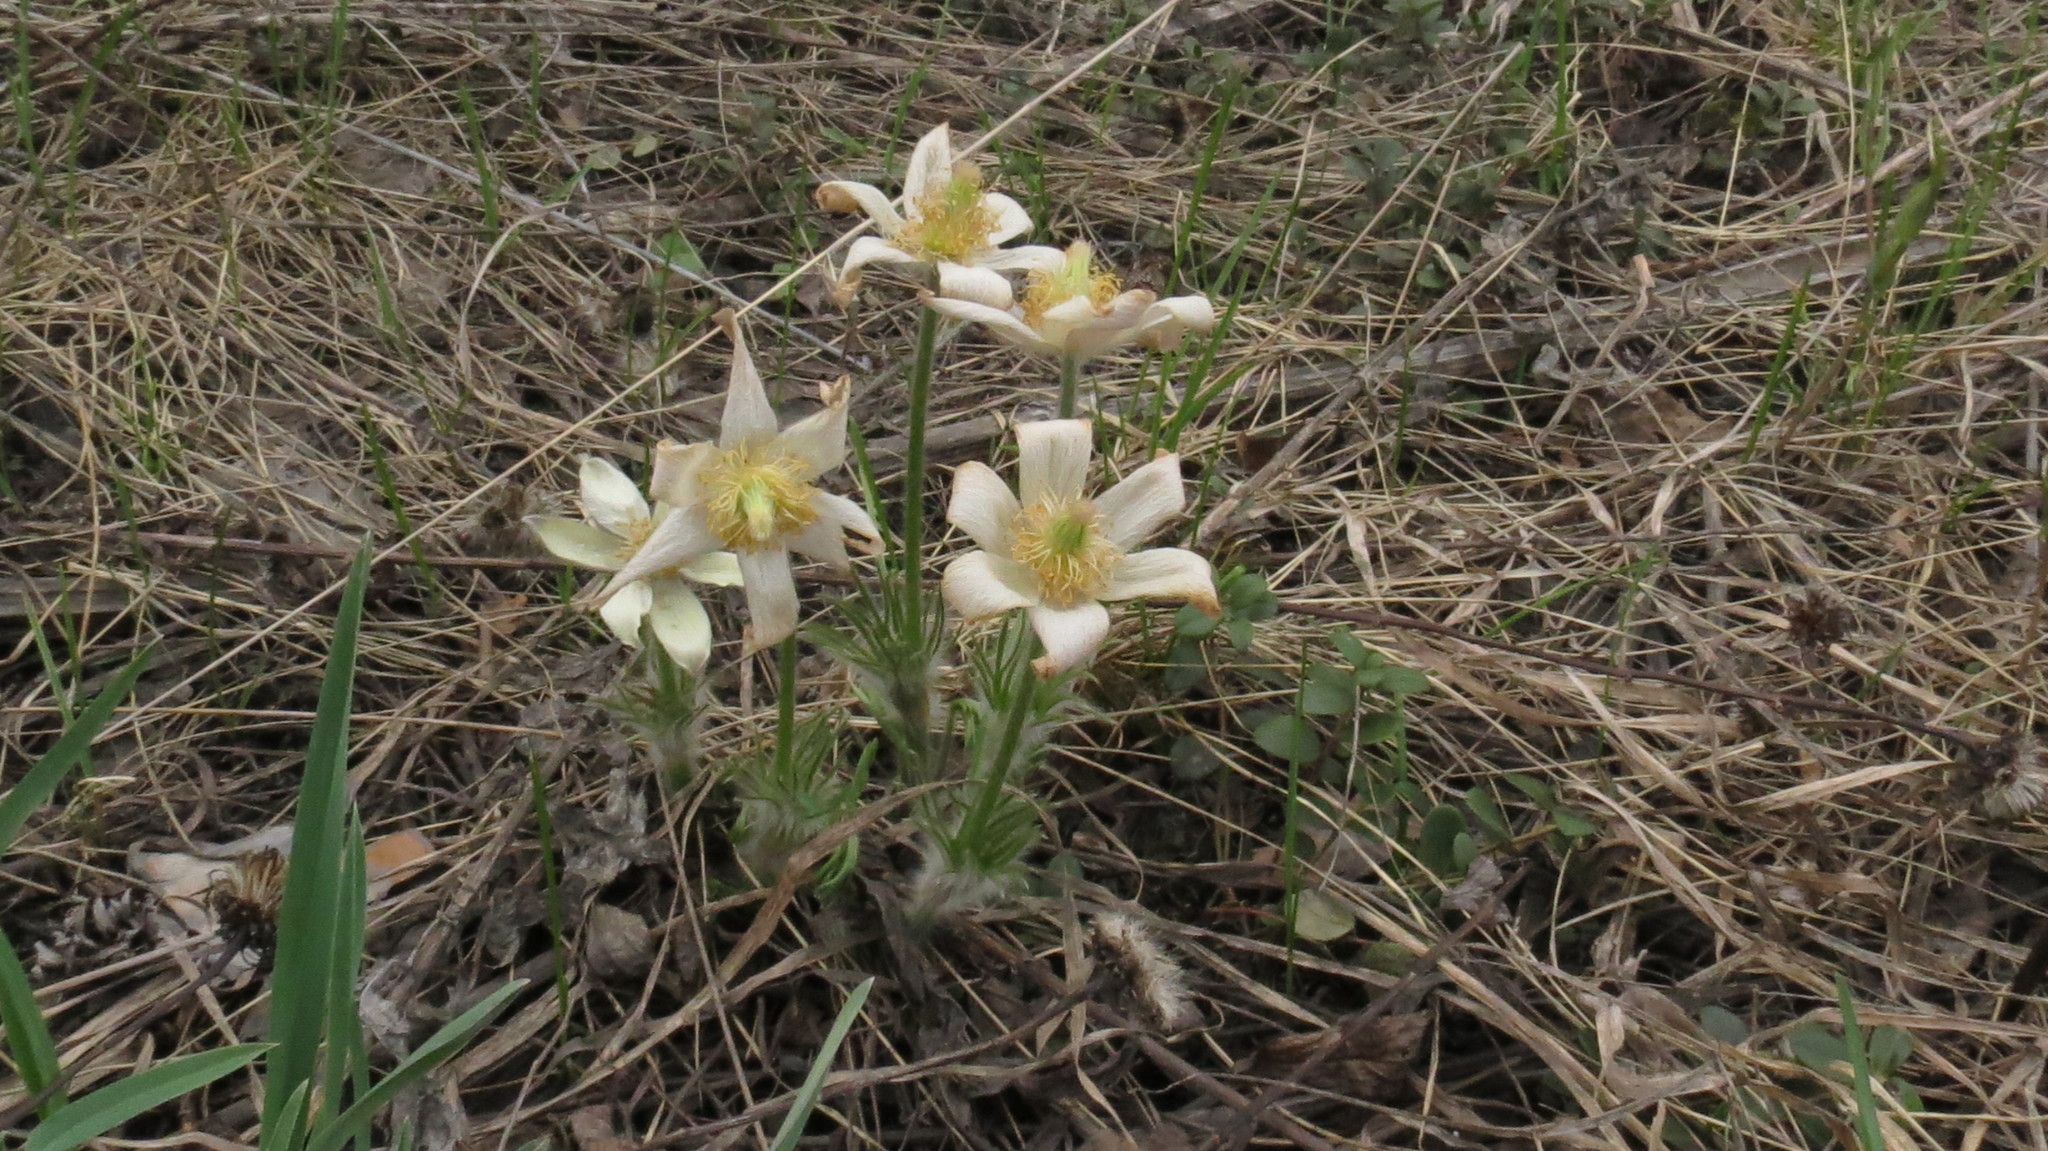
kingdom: Plantae
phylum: Tracheophyta
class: Magnoliopsida
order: Ranunculales
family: Ranunculaceae
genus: Pulsatilla
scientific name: Pulsatilla patens
